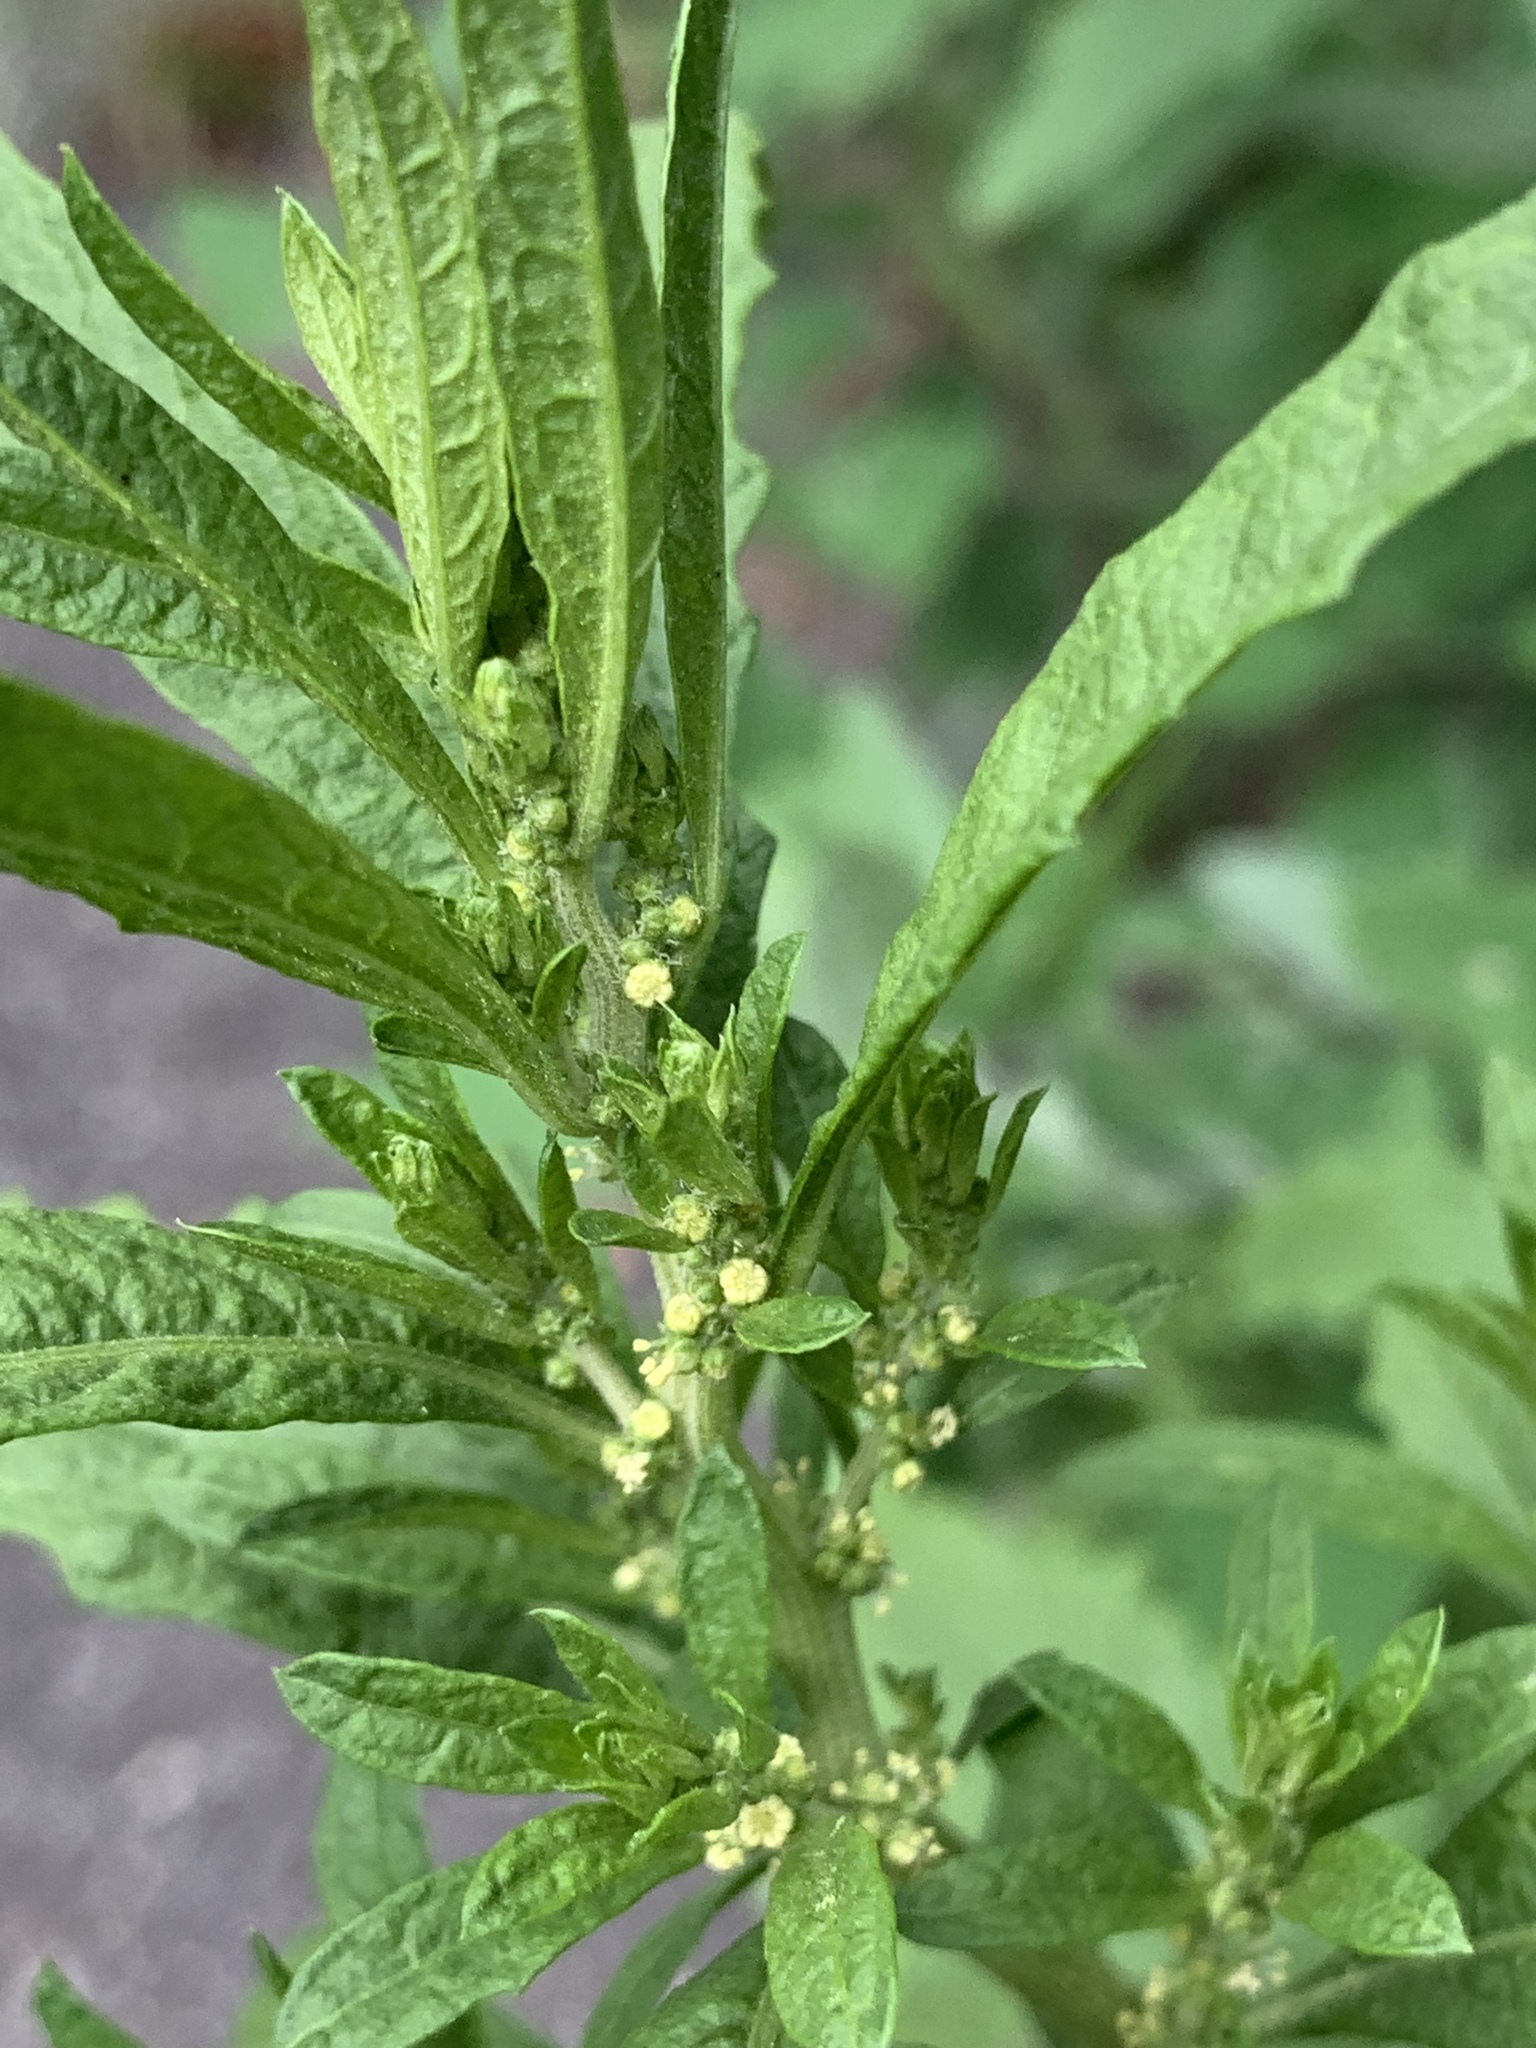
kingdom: Plantae
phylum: Tracheophyta
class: Magnoliopsida
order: Caryophyllales
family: Amaranthaceae
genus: Dysphania
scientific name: Dysphania ambrosioides
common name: Wormseed
